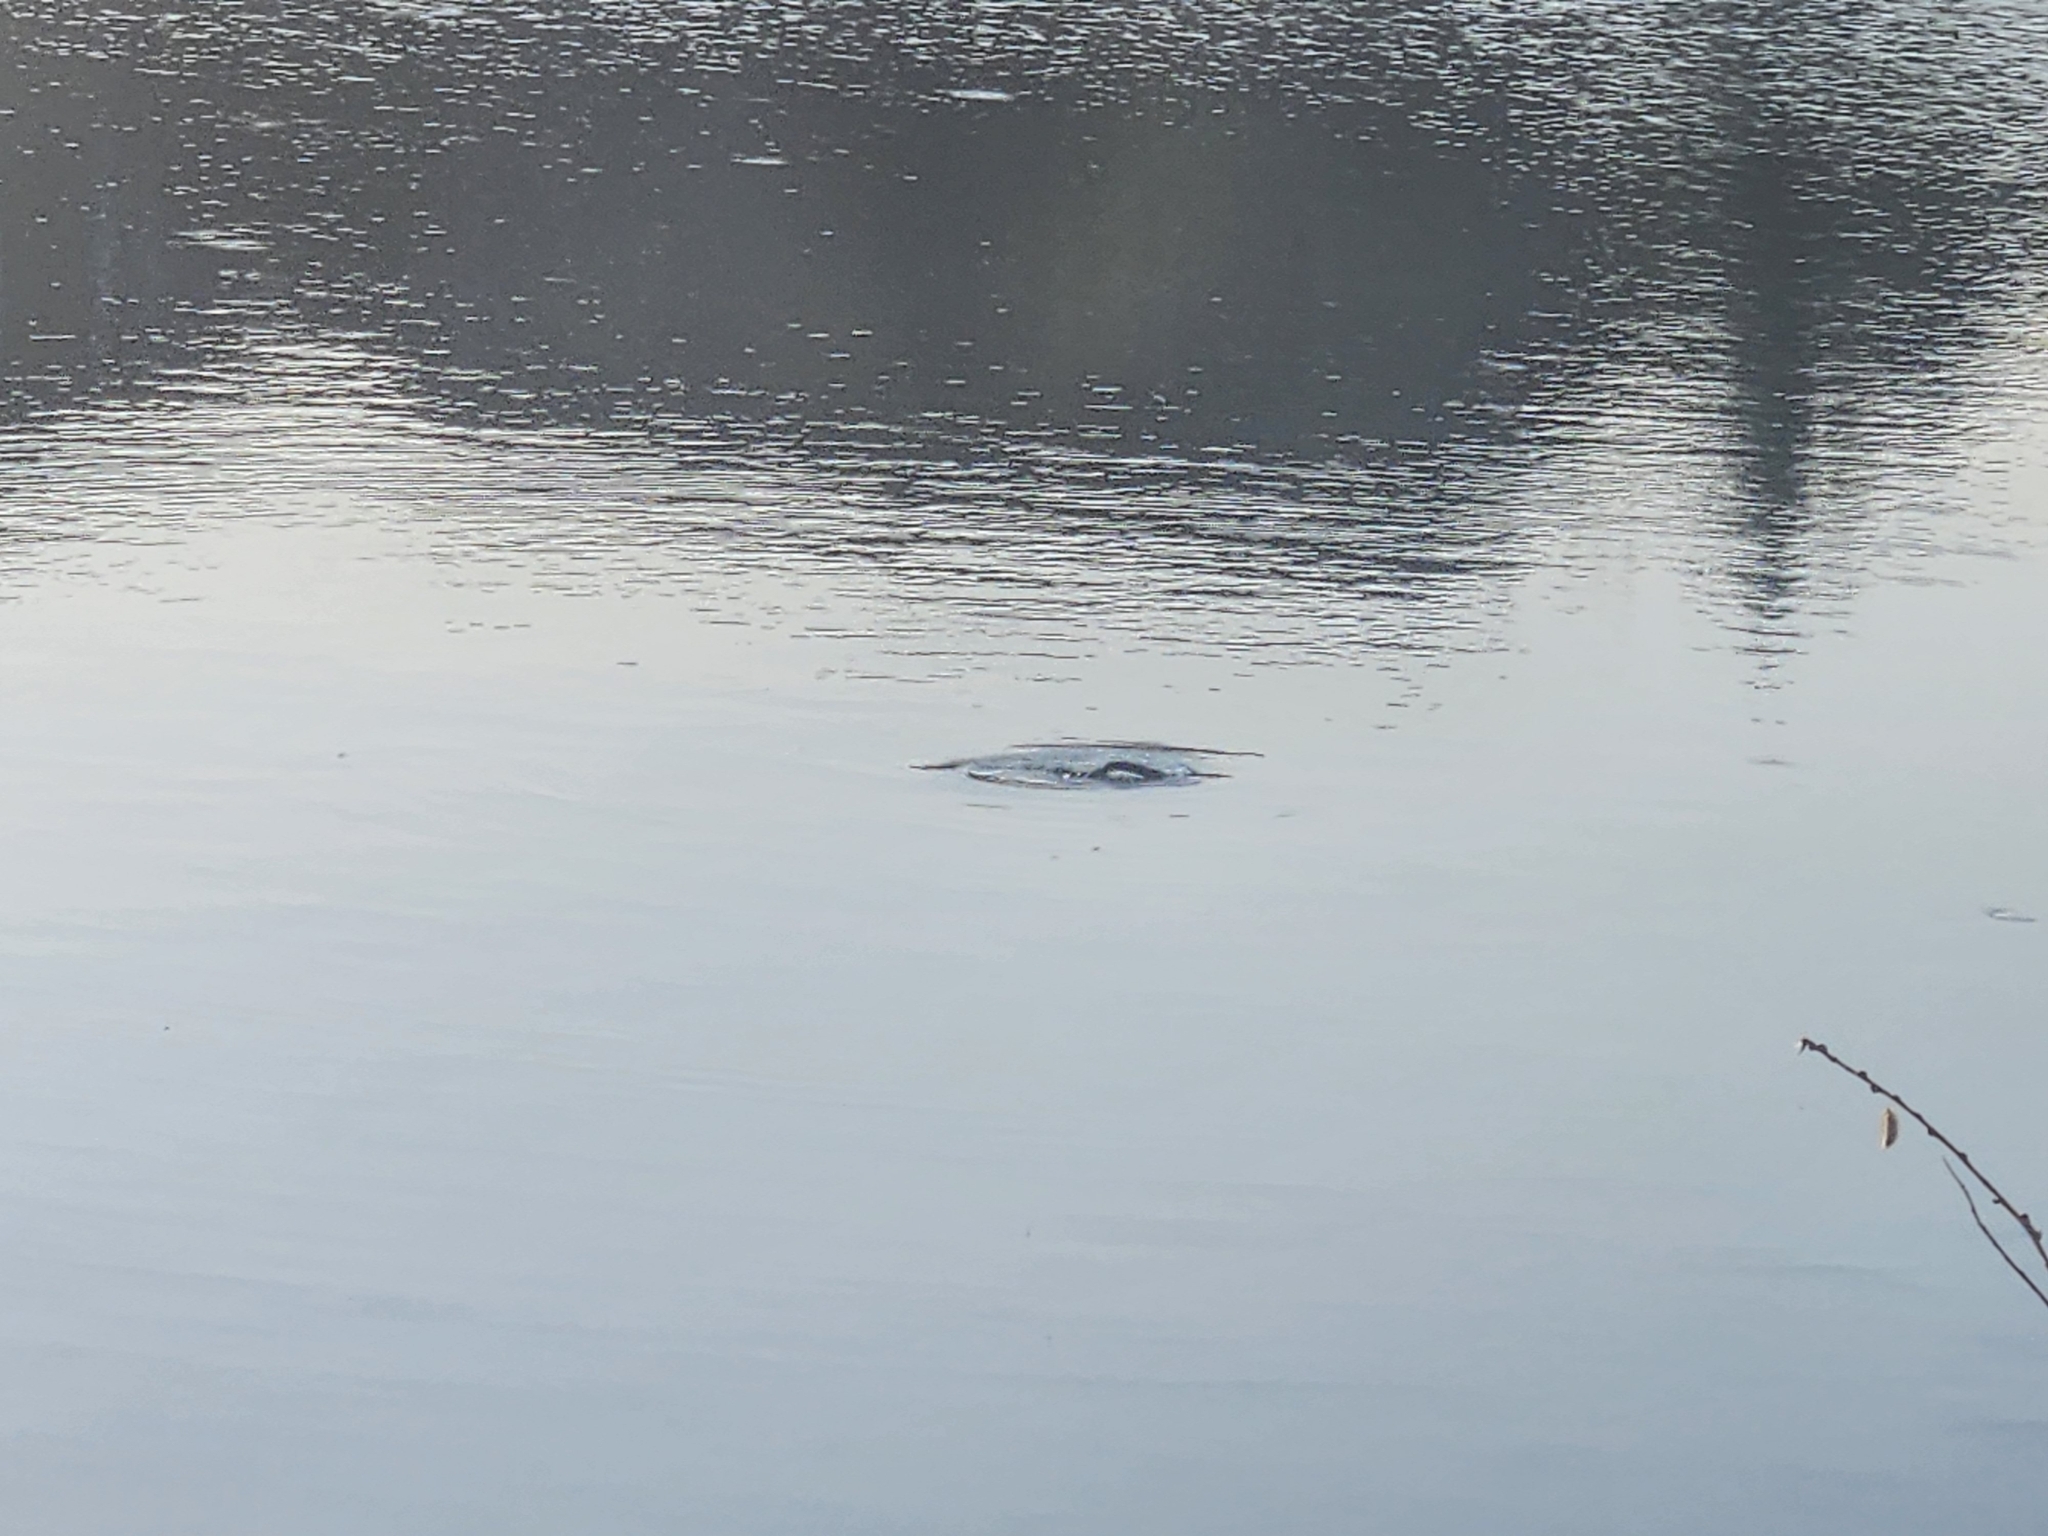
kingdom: Animalia
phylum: Chordata
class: Mammalia
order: Rodentia
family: Cricetidae
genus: Ondatra
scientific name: Ondatra zibethicus
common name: Muskrat
